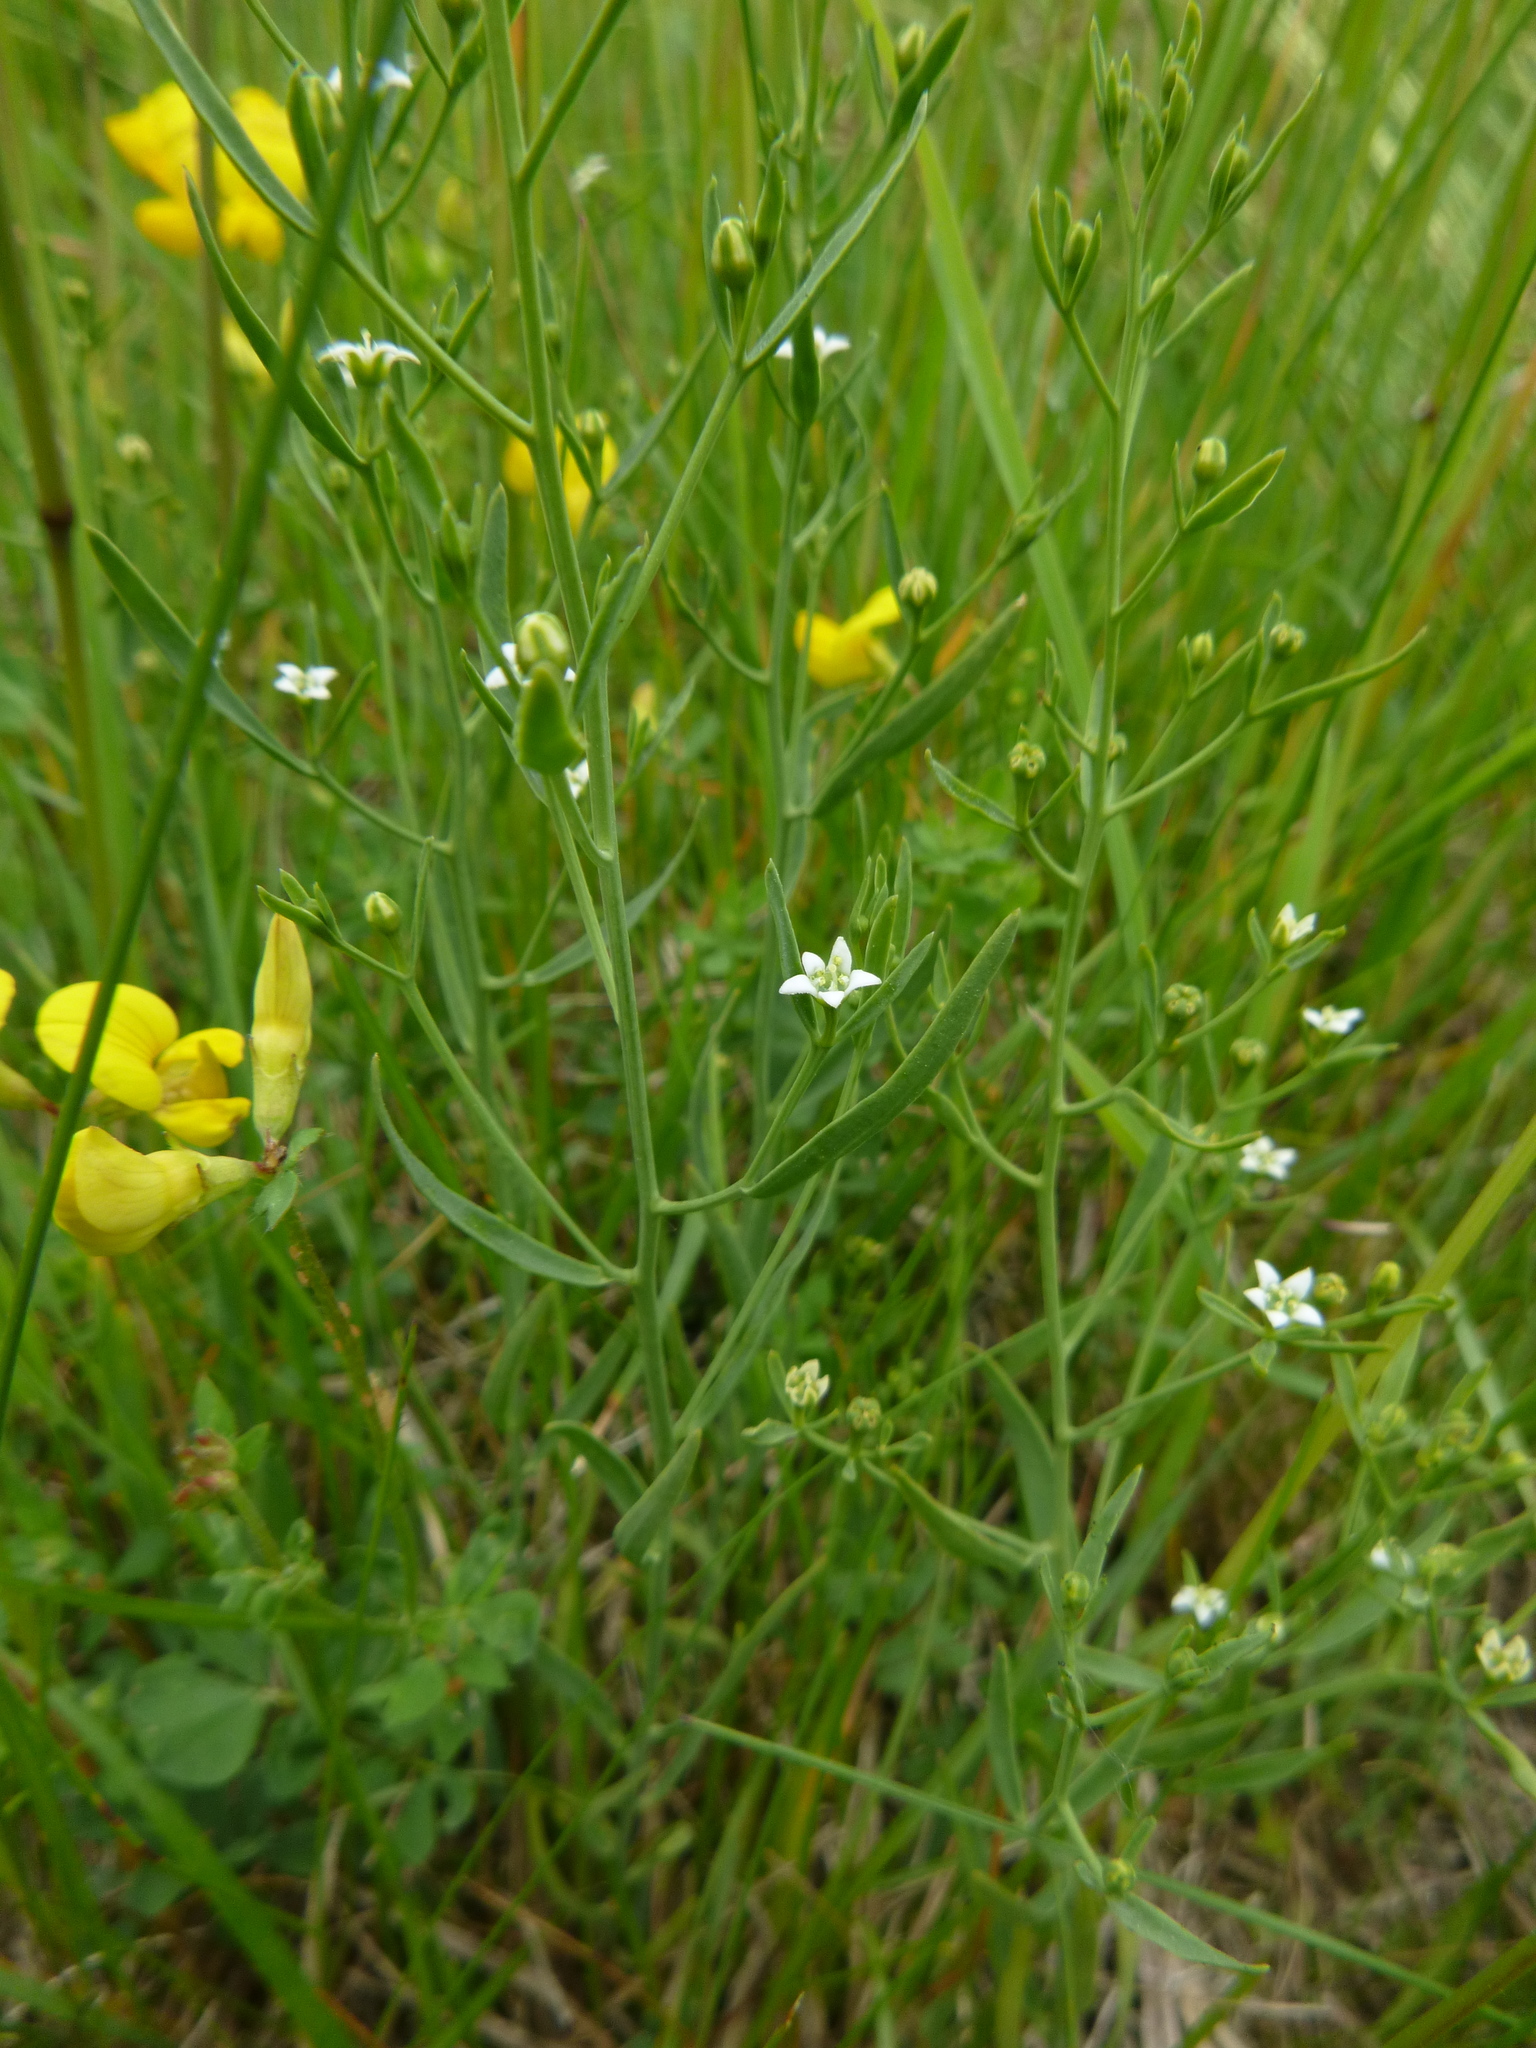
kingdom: Plantae
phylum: Tracheophyta
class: Magnoliopsida
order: Santalales
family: Thesiaceae
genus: Thesium
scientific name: Thesium pyrenaicum
